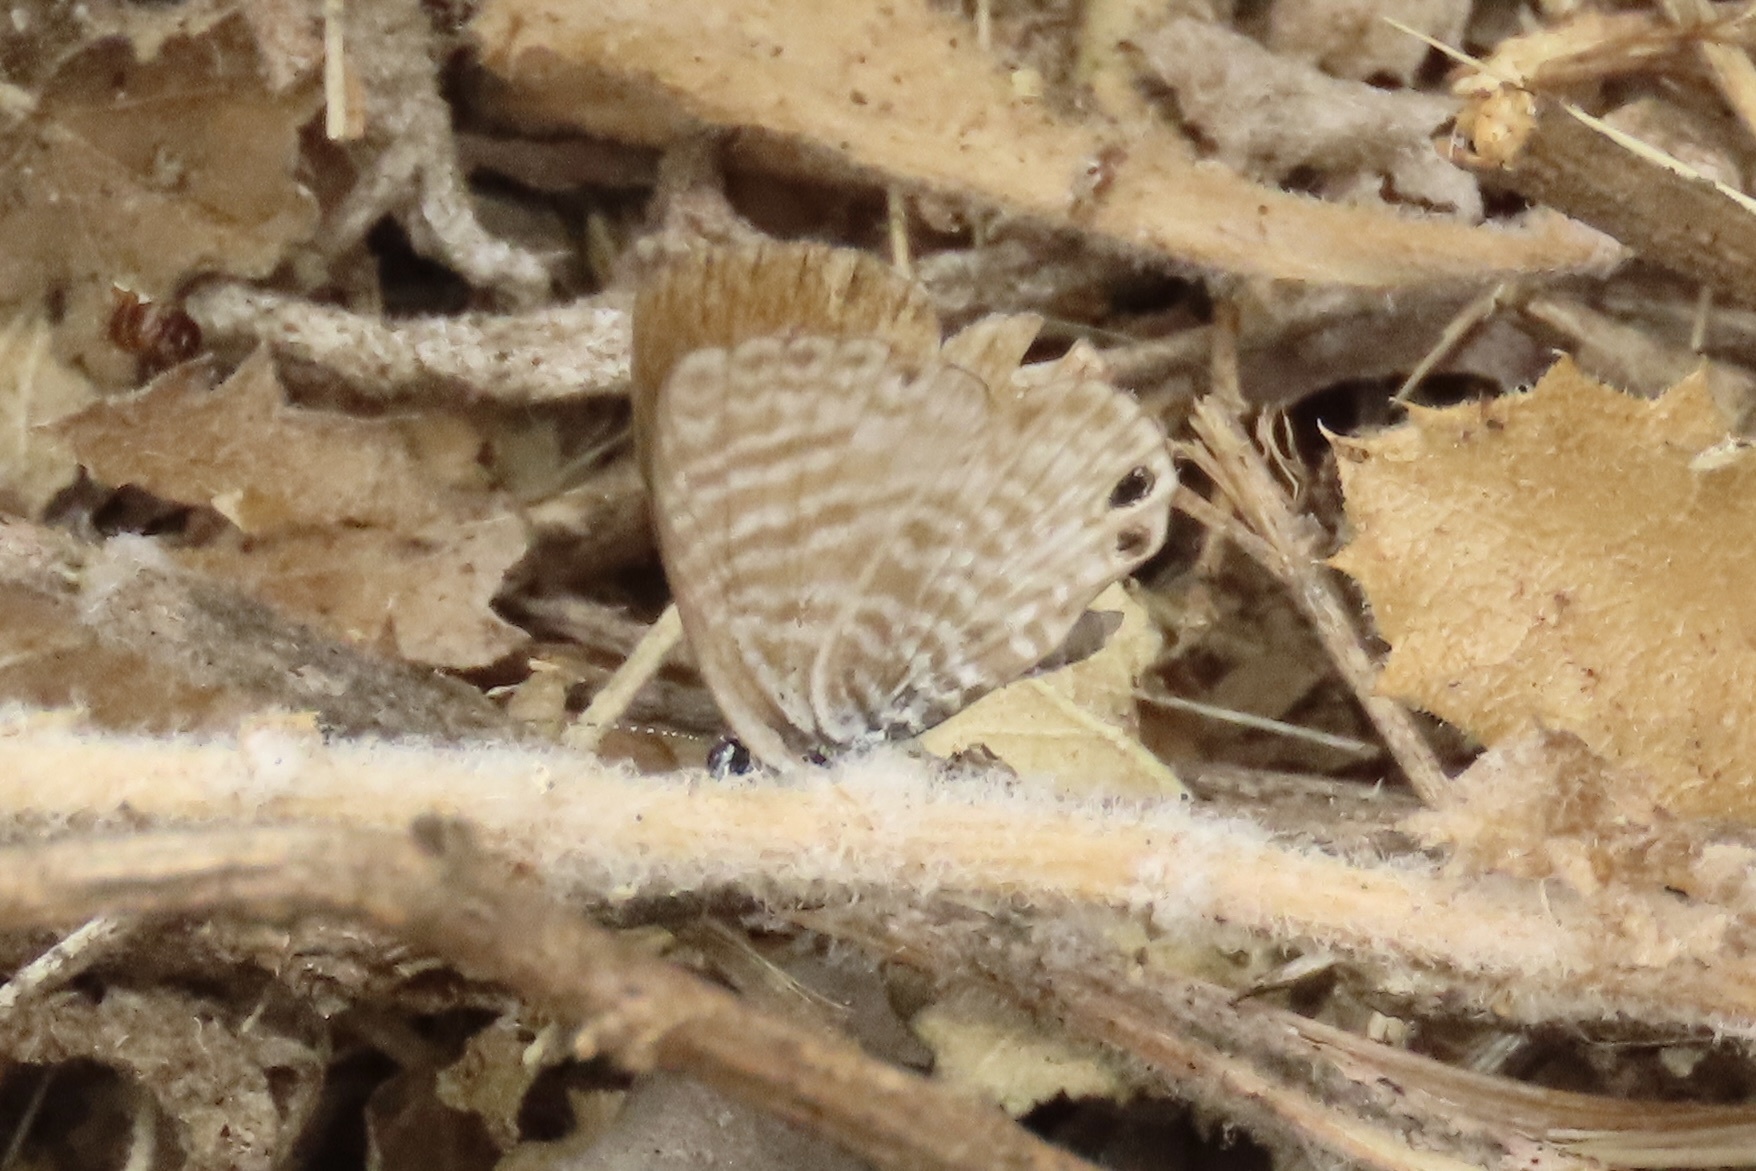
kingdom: Animalia
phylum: Arthropoda
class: Insecta
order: Lepidoptera
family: Lycaenidae
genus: Leptotes
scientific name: Leptotes marina
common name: Marine blue
